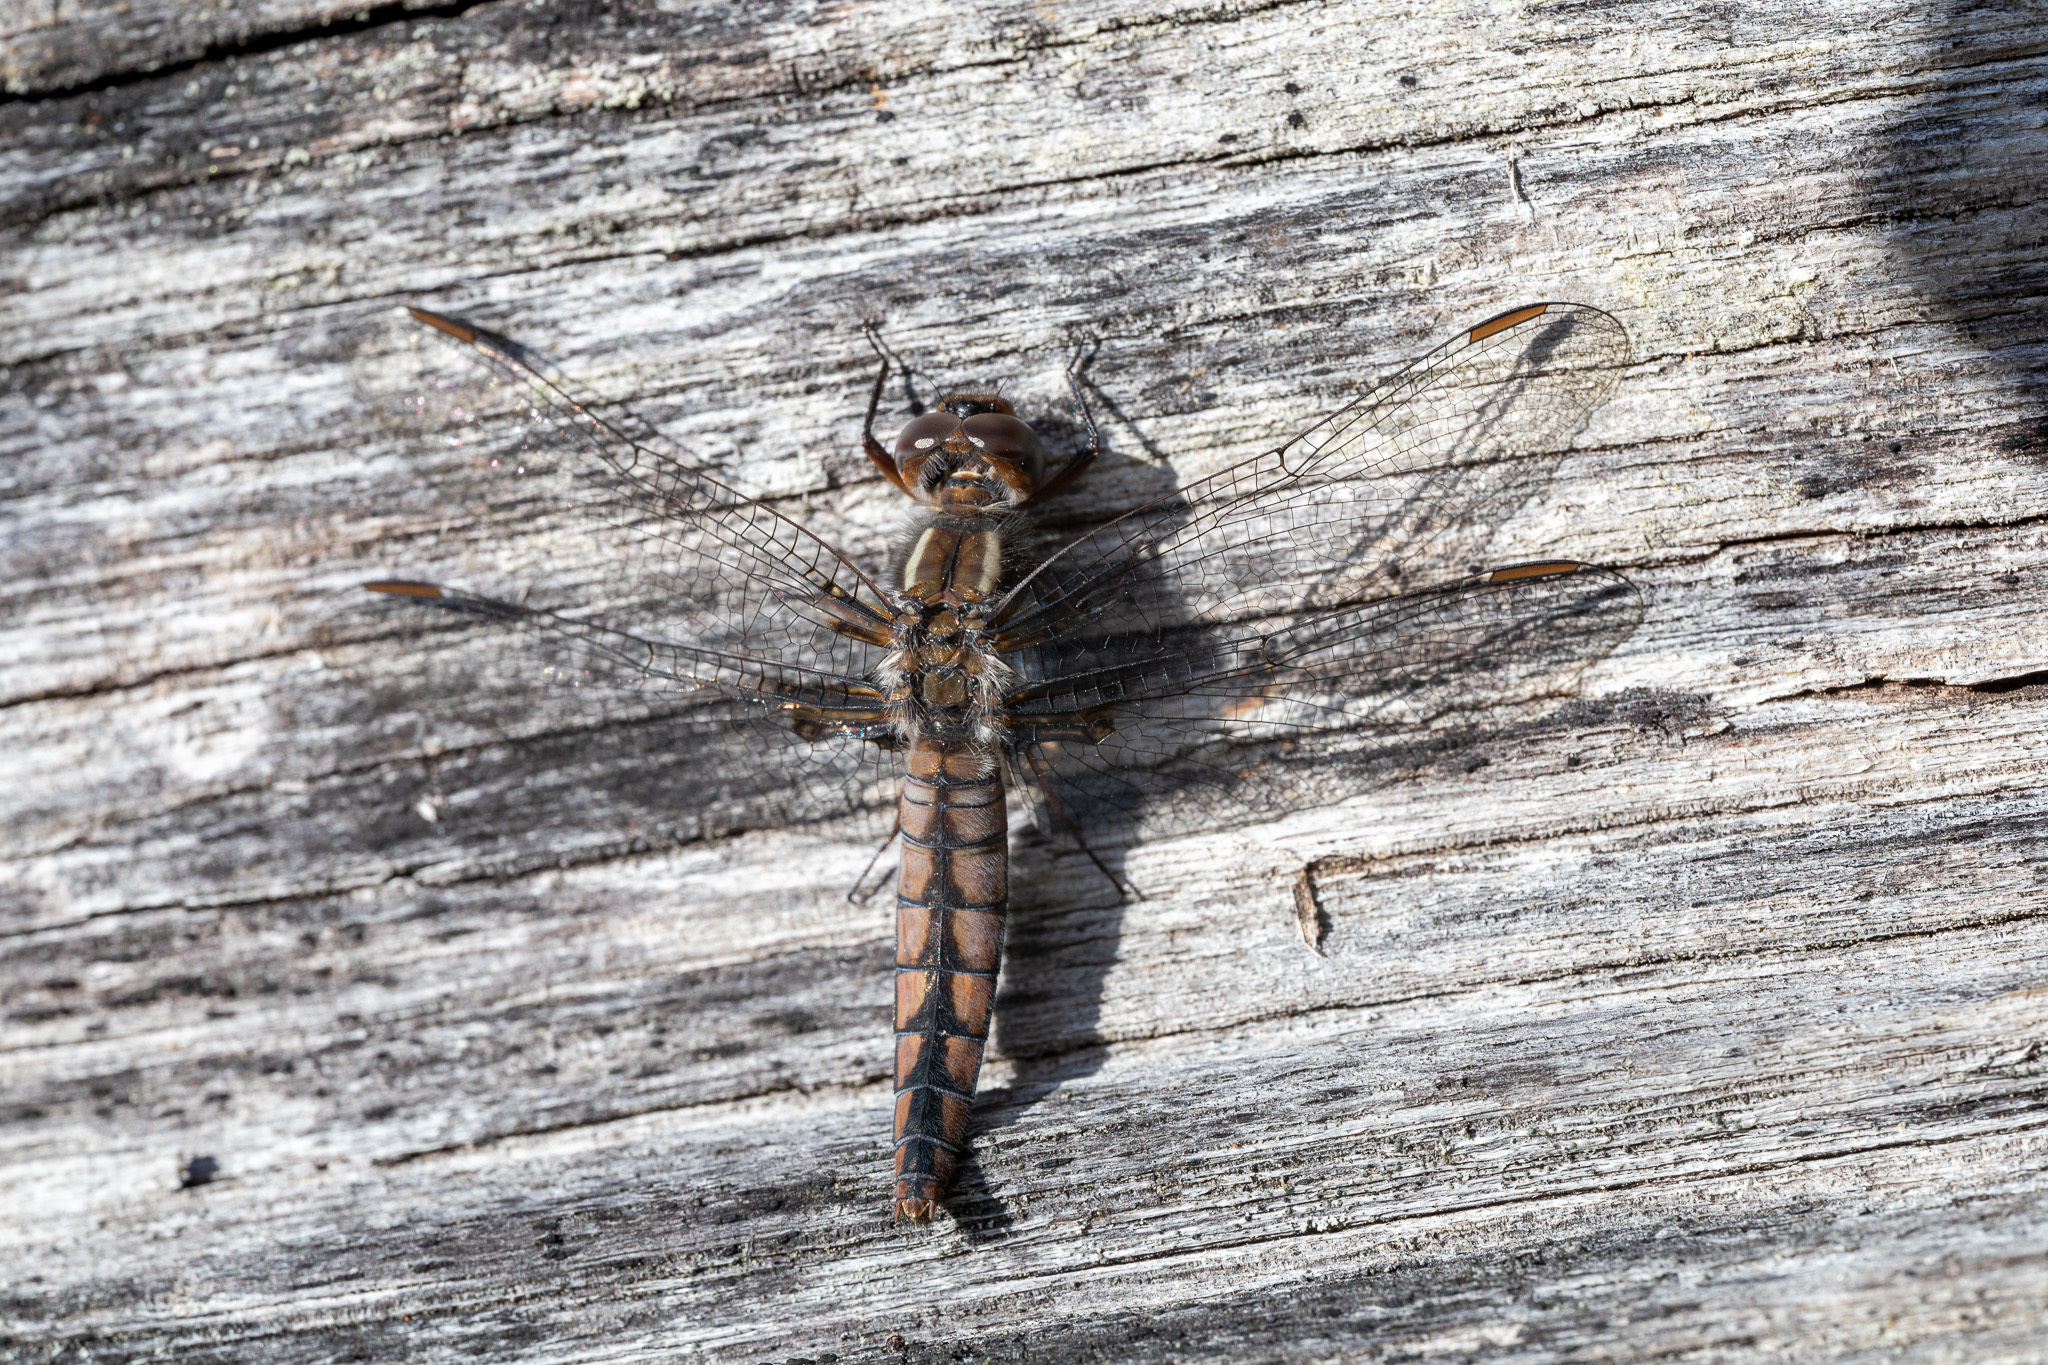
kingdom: Animalia
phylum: Arthropoda
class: Insecta
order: Odonata
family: Libellulidae
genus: Ladona
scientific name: Ladona deplanata
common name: Blue corporal
